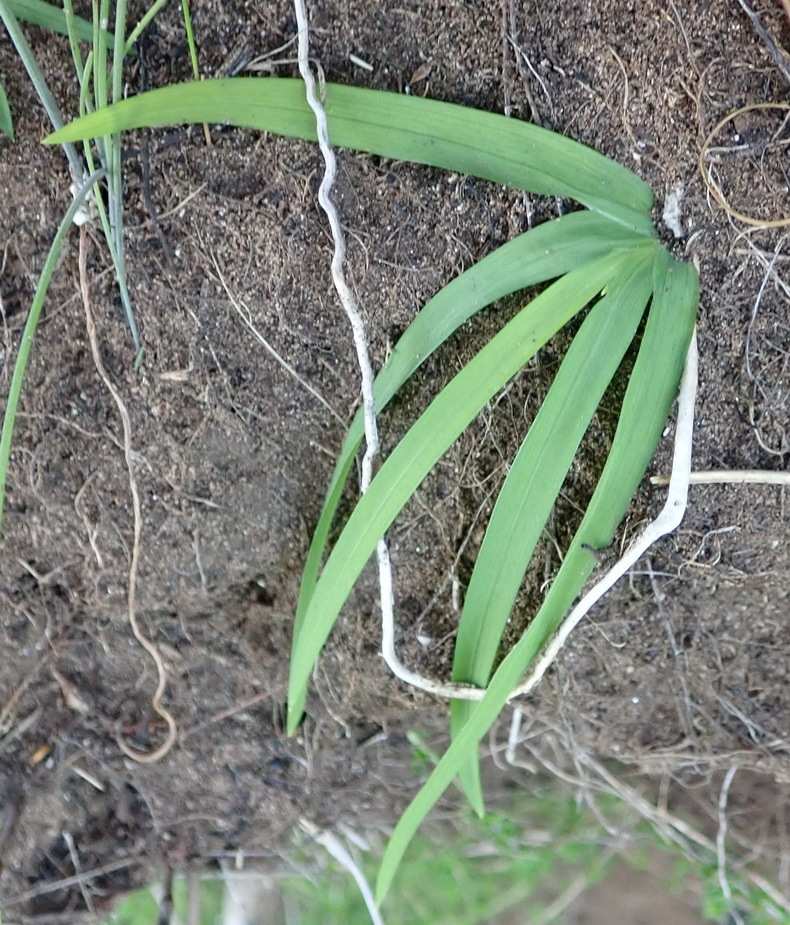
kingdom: Plantae
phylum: Tracheophyta
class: Liliopsida
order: Asparagales
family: Iridaceae
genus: Freesia
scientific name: Freesia leichtlinii
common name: Freesia
